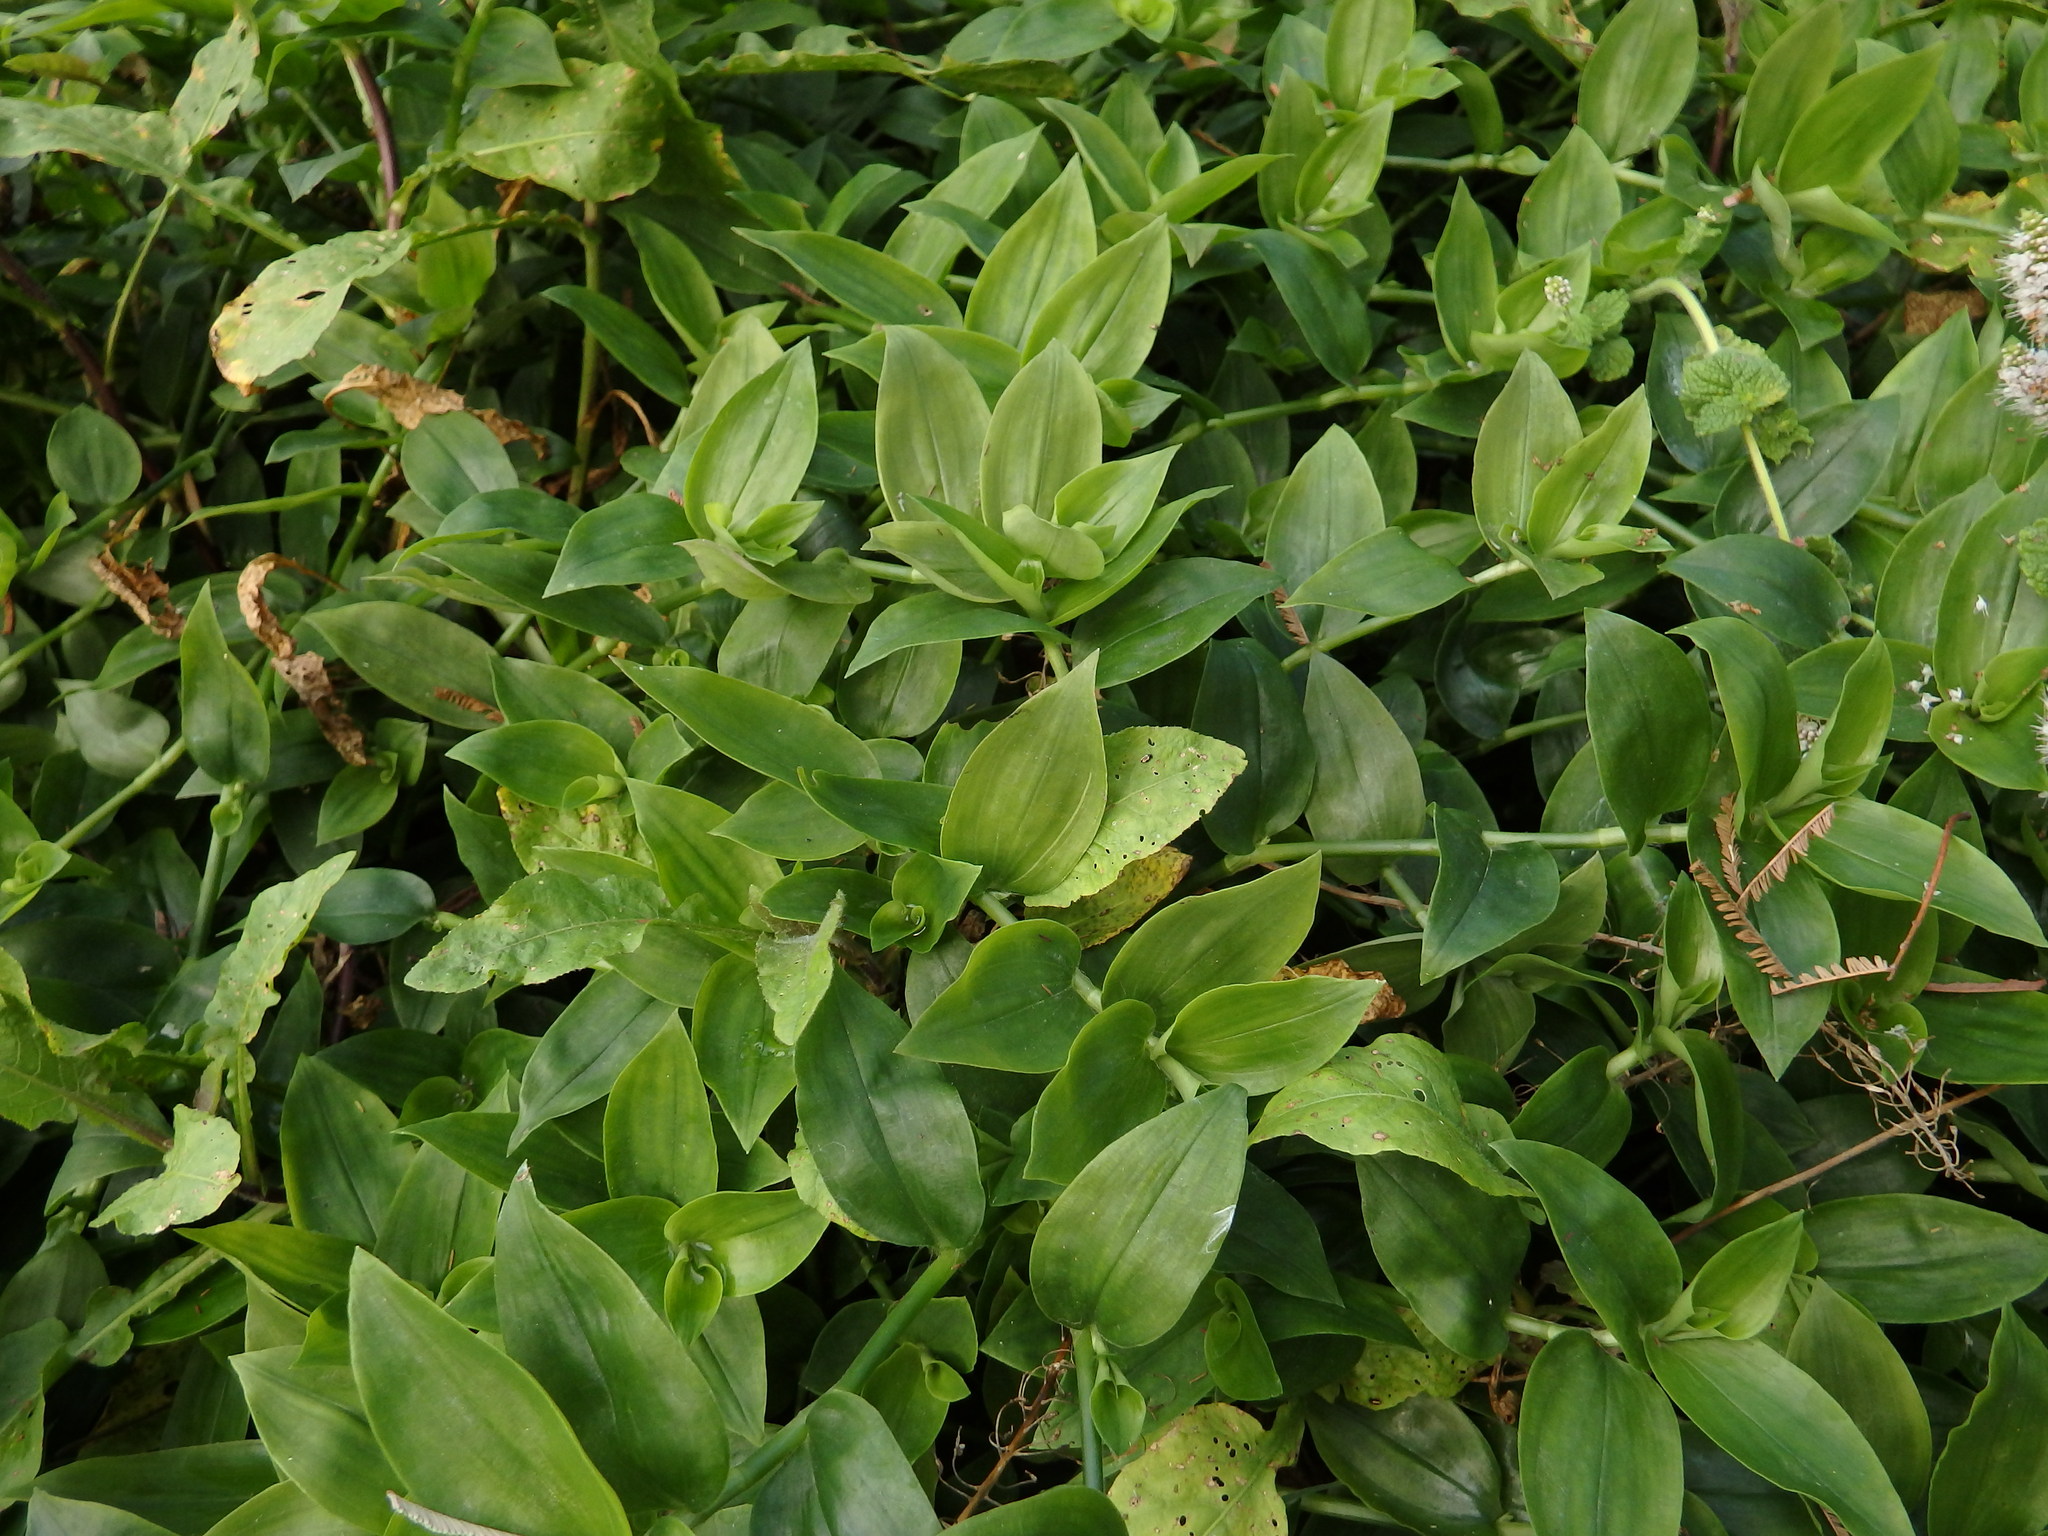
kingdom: Plantae
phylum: Tracheophyta
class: Liliopsida
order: Commelinales
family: Commelinaceae
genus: Tradescantia
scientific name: Tradescantia fluminensis
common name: Wandering-jew
